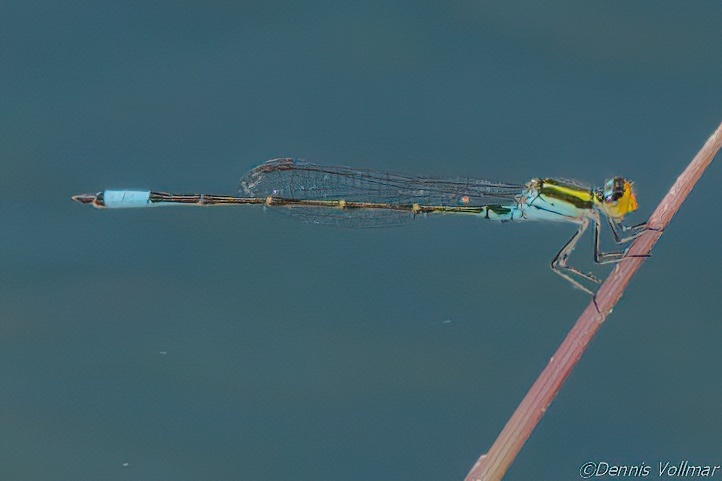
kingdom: Animalia
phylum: Arthropoda
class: Insecta
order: Odonata
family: Coenagrionidae
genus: Neoerythromma
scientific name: Neoerythromma cultellatum
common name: Caribbean yellowface
